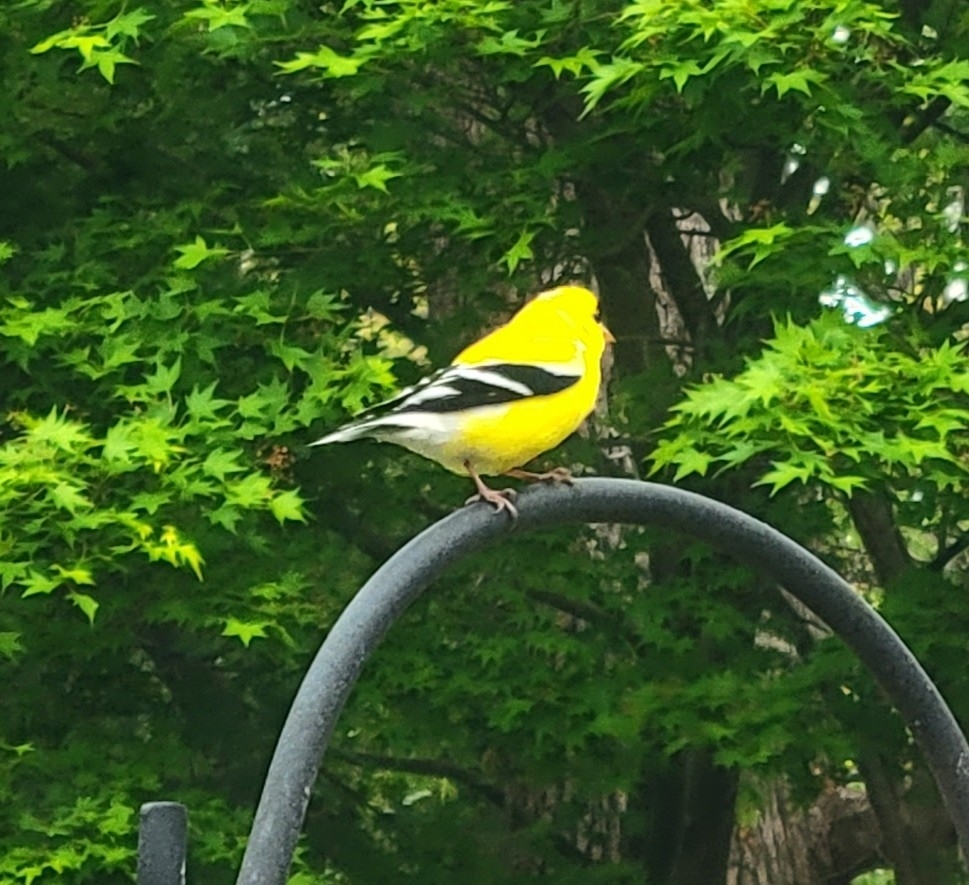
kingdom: Animalia
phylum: Chordata
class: Aves
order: Passeriformes
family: Fringillidae
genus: Spinus
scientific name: Spinus tristis
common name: American goldfinch
